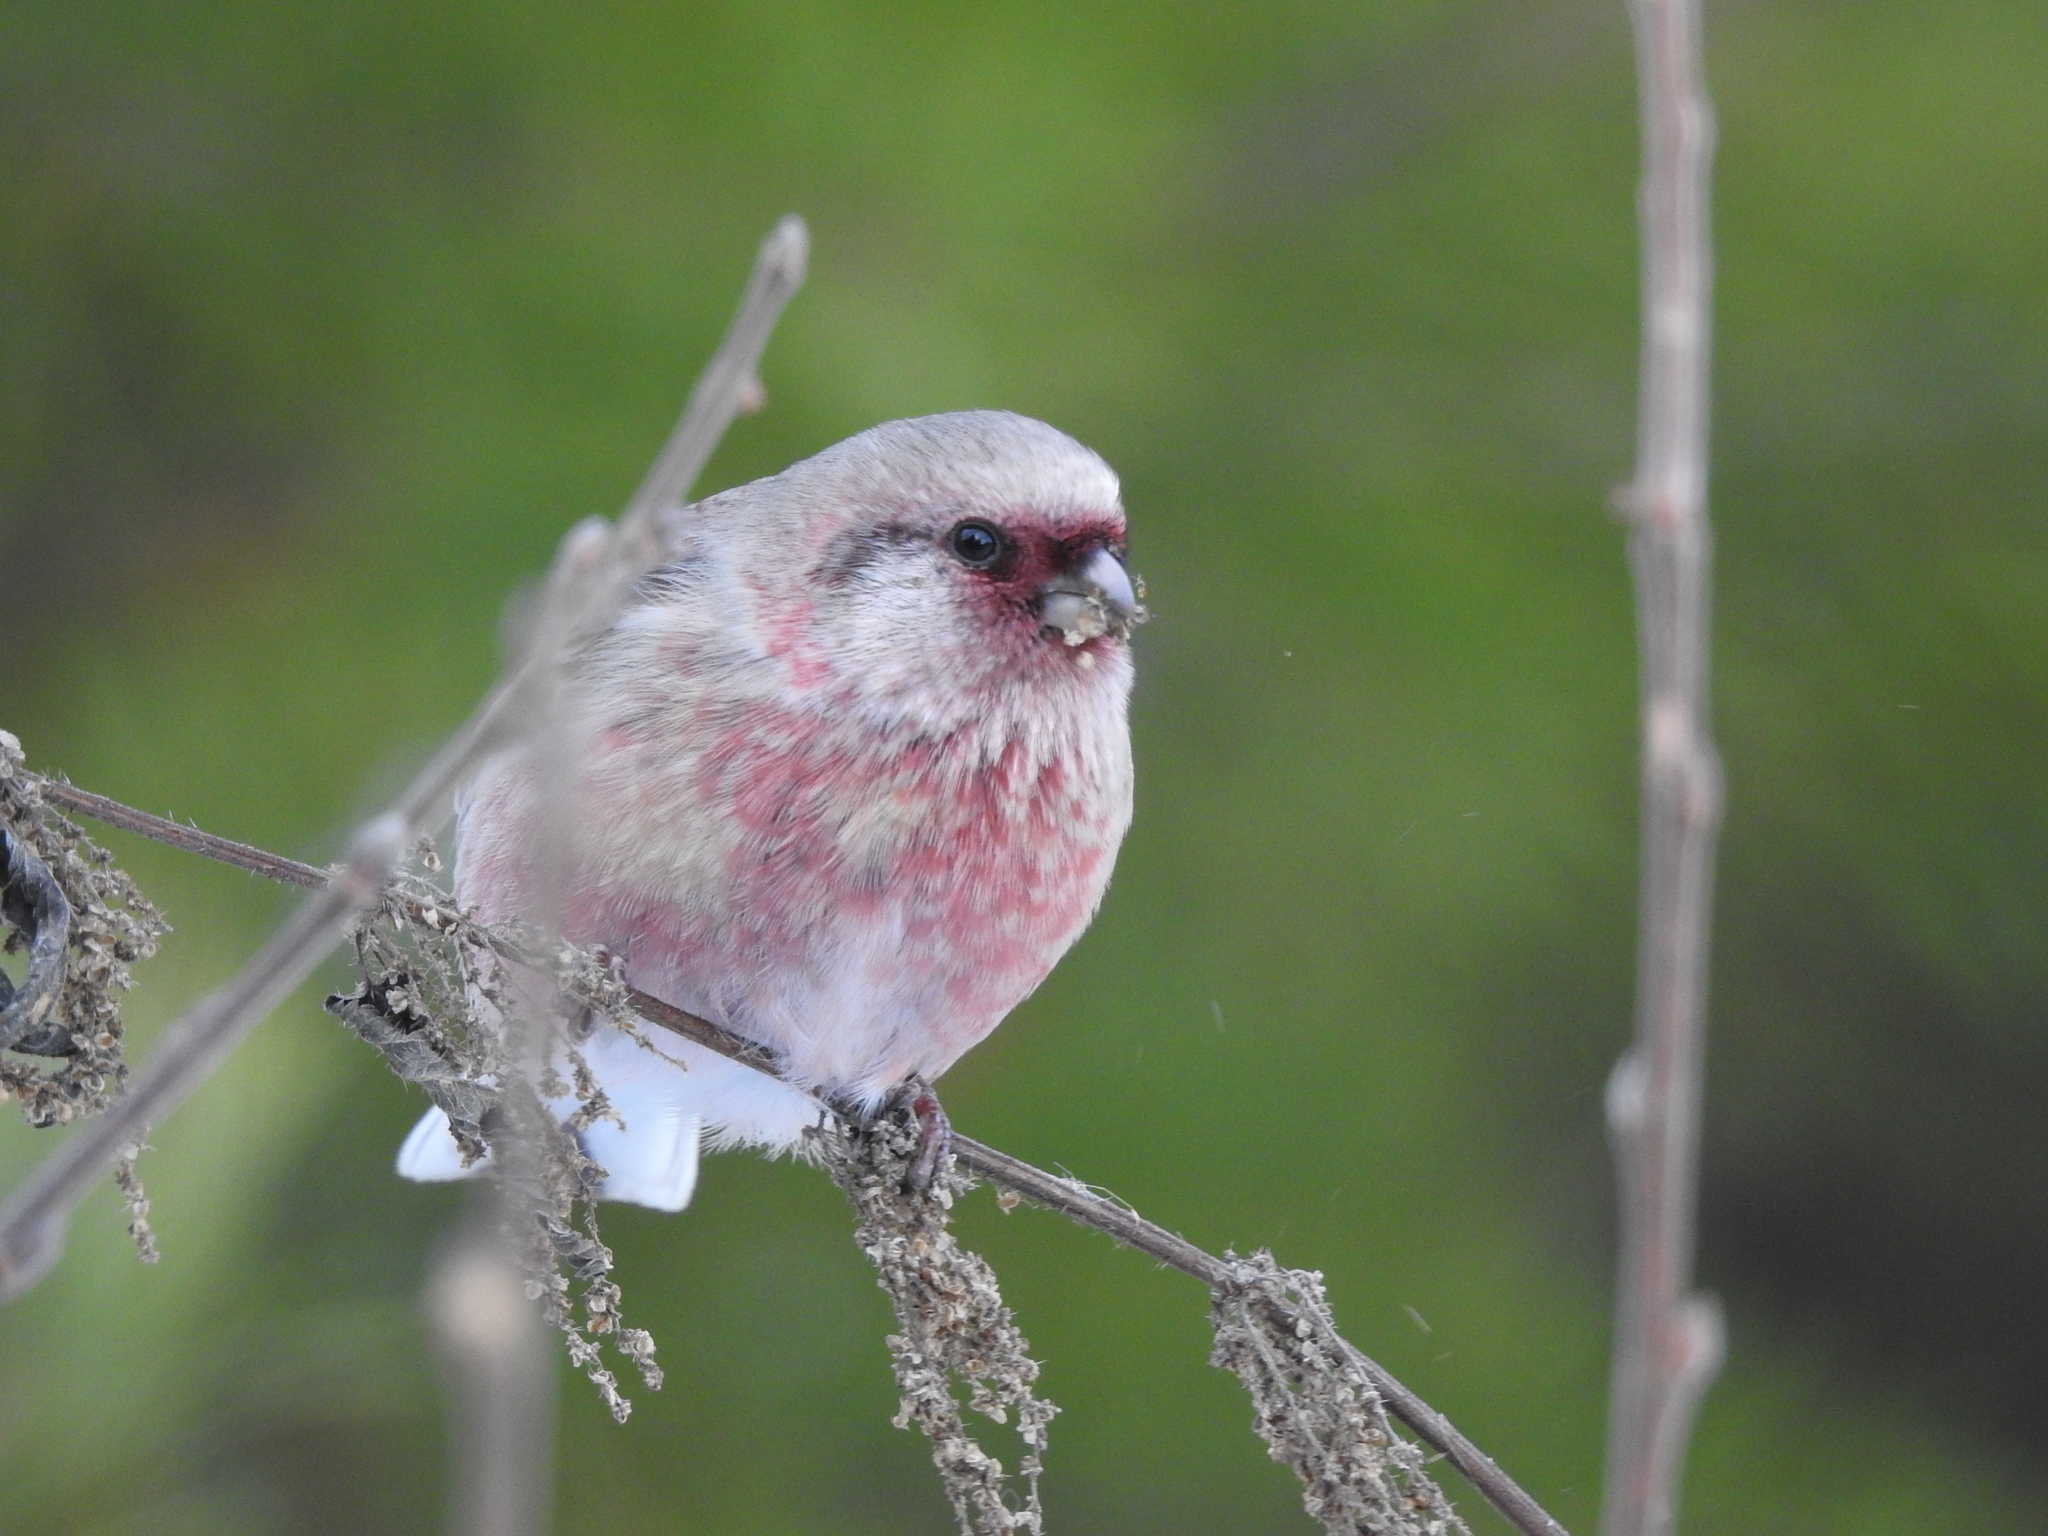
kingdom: Animalia
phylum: Chordata
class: Aves
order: Passeriformes
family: Fringillidae
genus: Carpodacus
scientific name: Carpodacus sibiricus
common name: Long-tailed rosefinch
